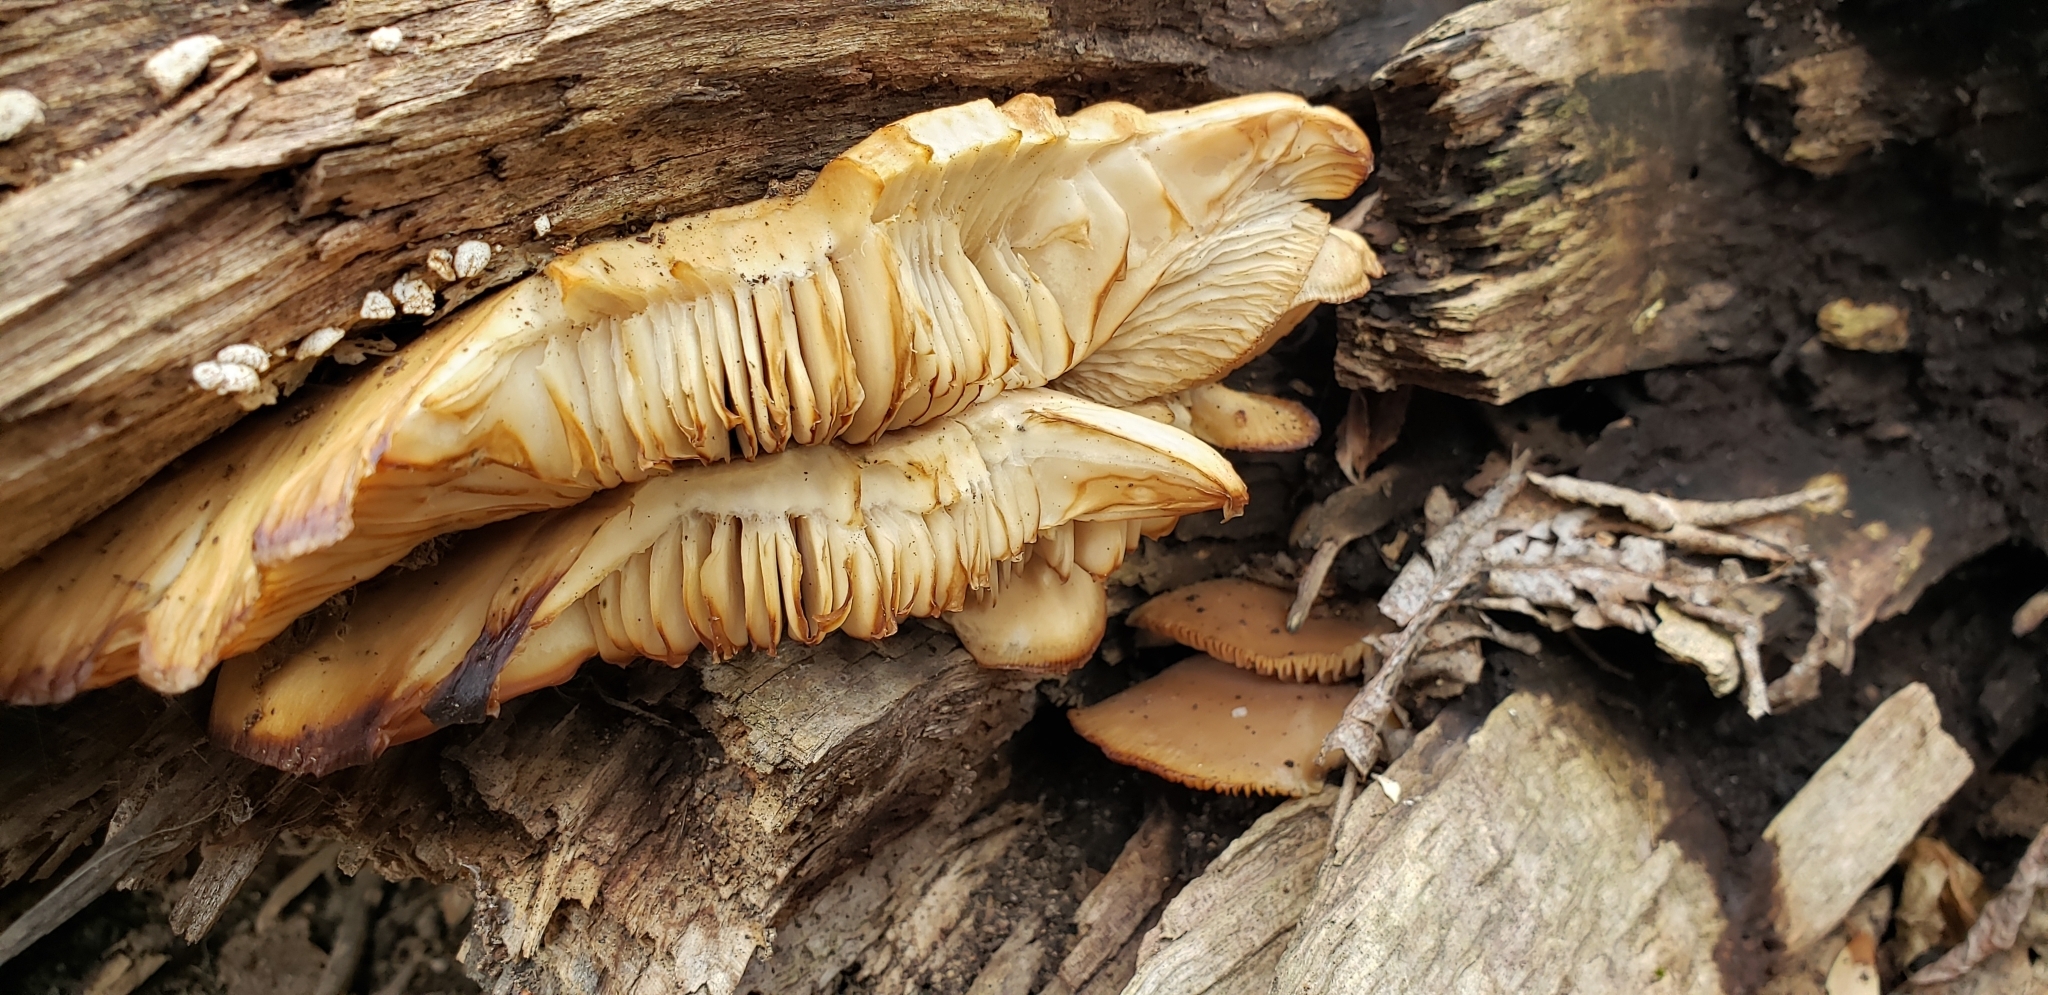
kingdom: Fungi
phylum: Basidiomycota
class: Agaricomycetes
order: Agaricales
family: Pleurotaceae
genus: Pleurotus
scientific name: Pleurotus ostreatus
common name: Oyster mushroom
